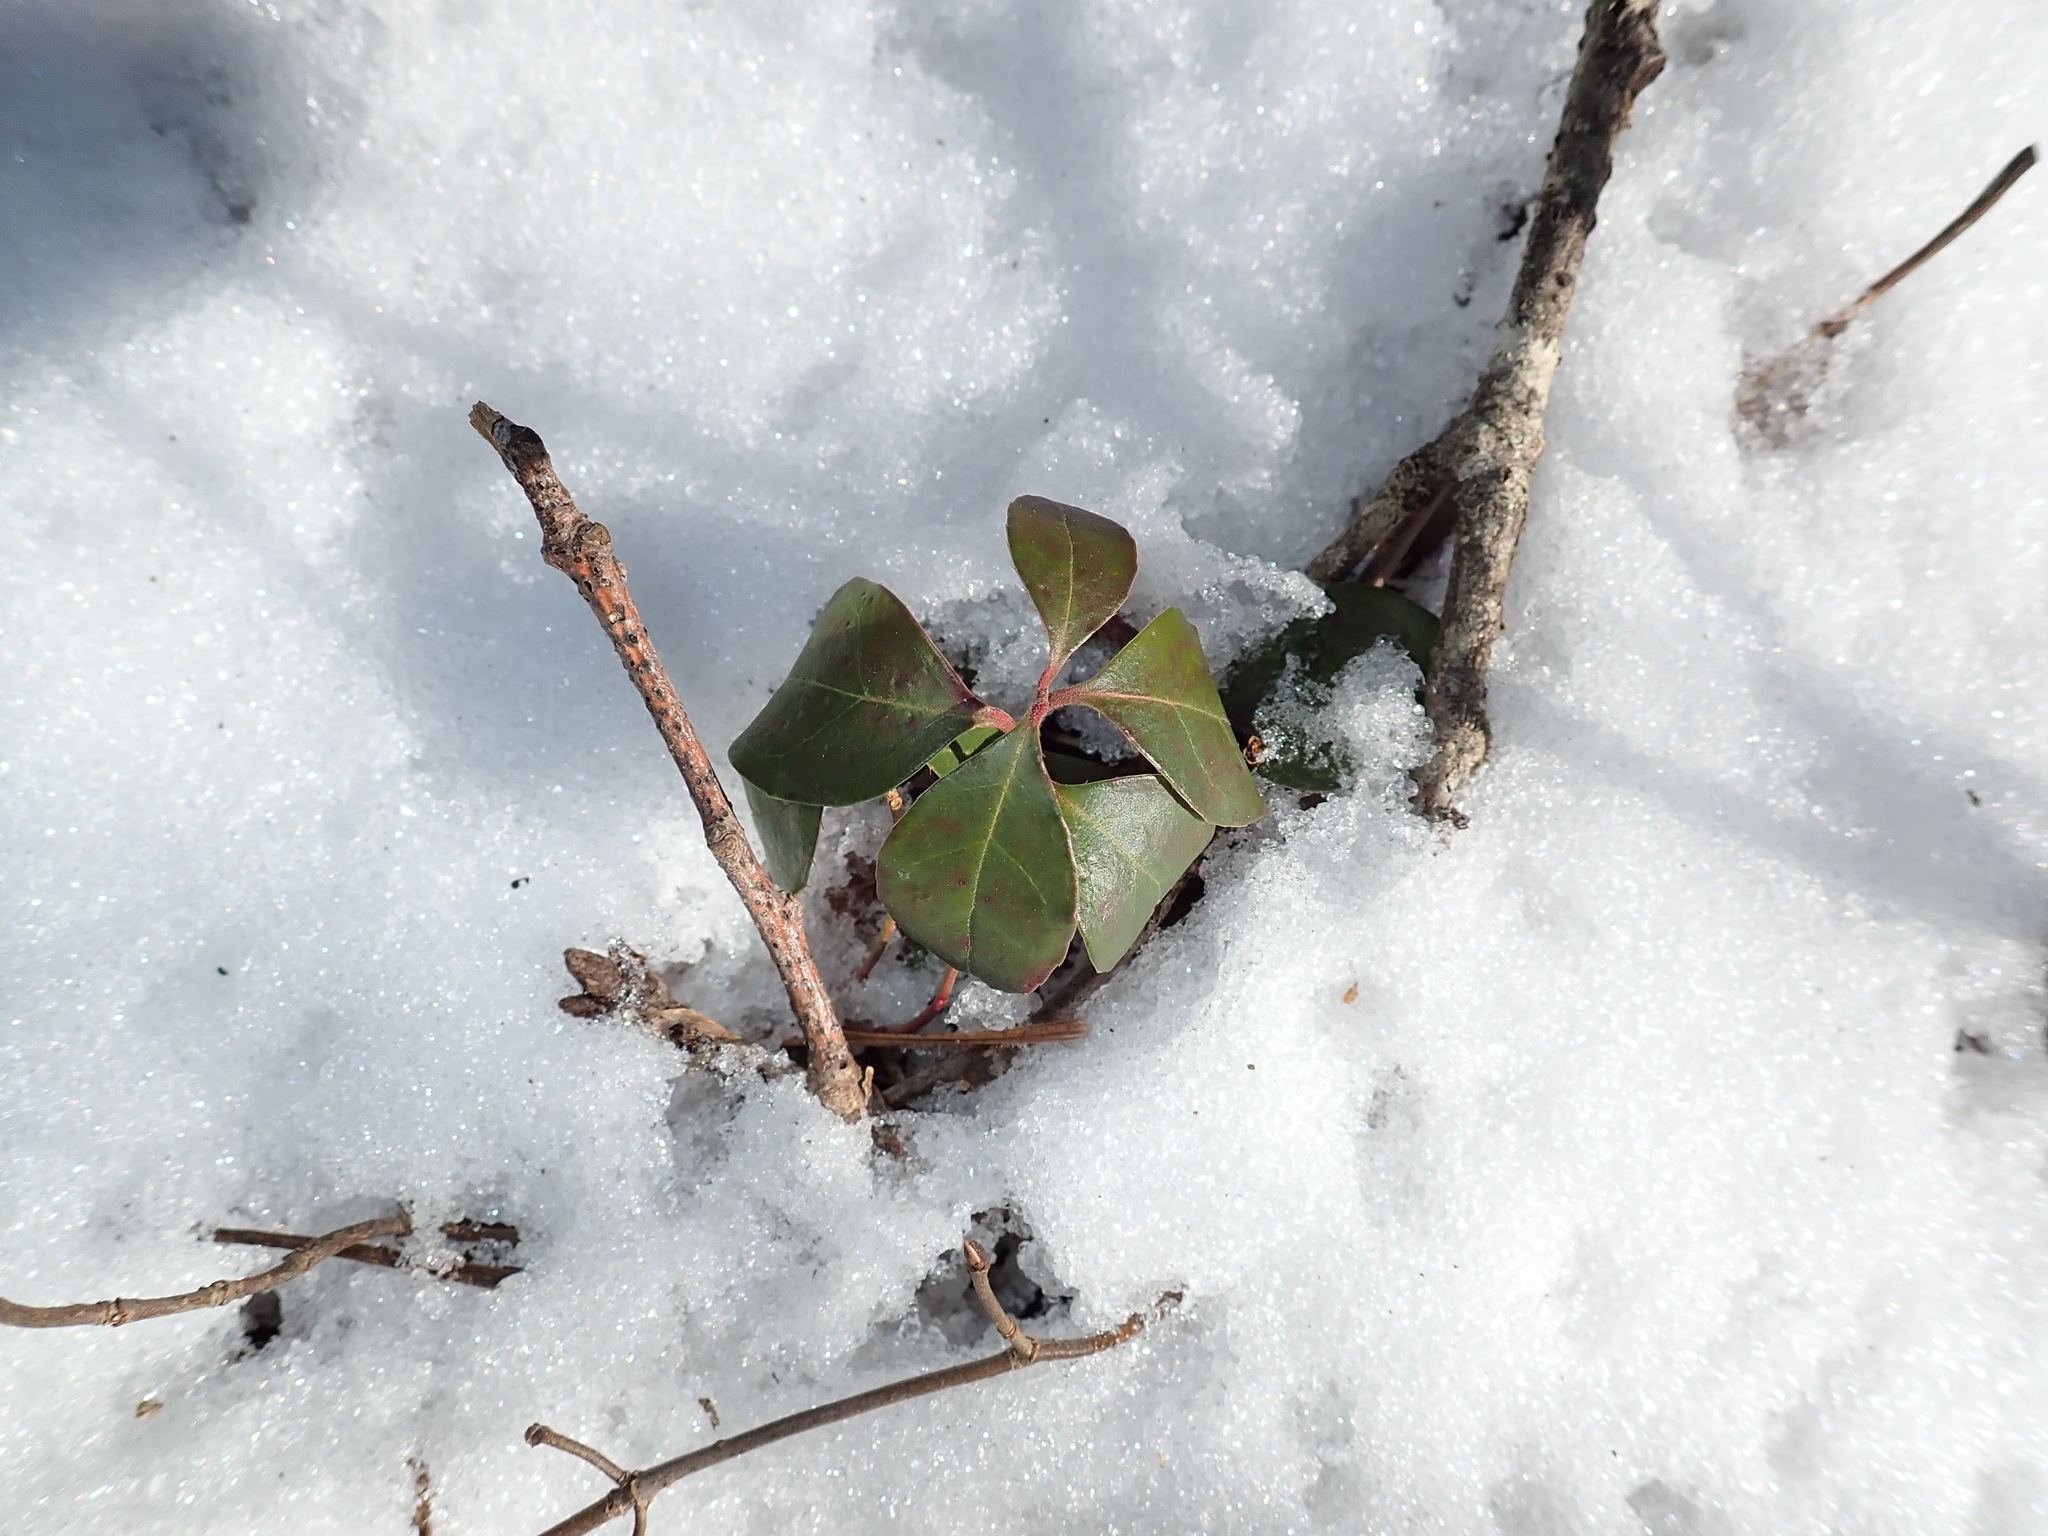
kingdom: Plantae
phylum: Tracheophyta
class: Magnoliopsida
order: Ericales
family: Ericaceae
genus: Gaultheria
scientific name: Gaultheria procumbens
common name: Checkerberry
